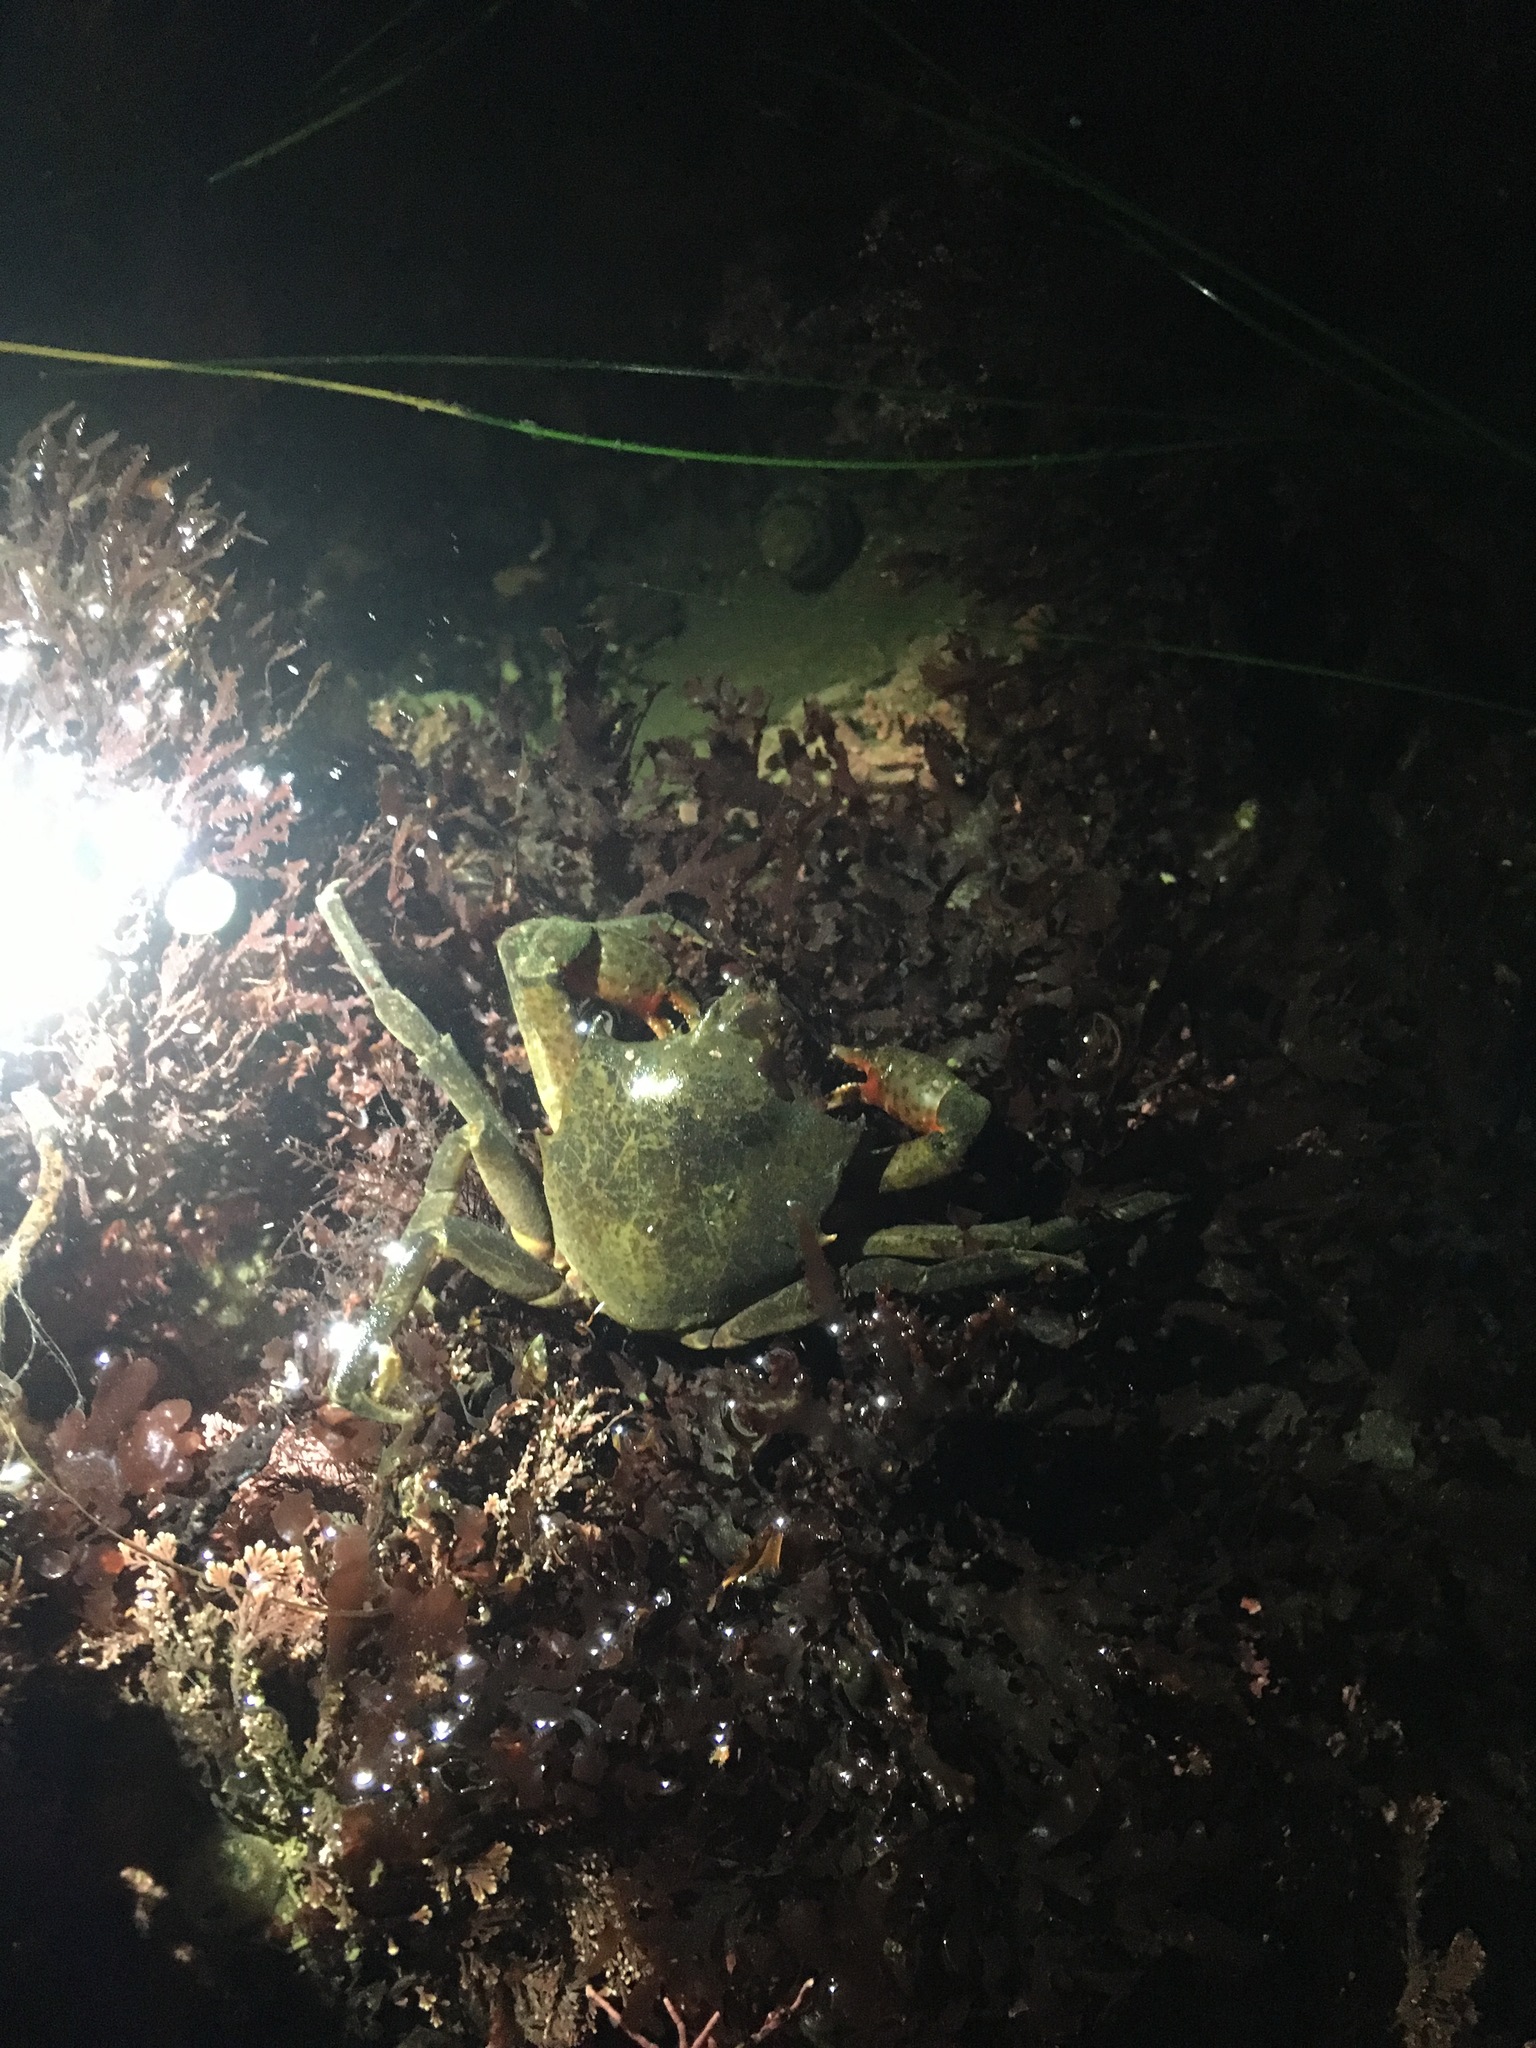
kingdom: Animalia
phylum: Arthropoda
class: Malacostraca
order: Decapoda
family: Epialtidae
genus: Pugettia
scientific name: Pugettia producta
